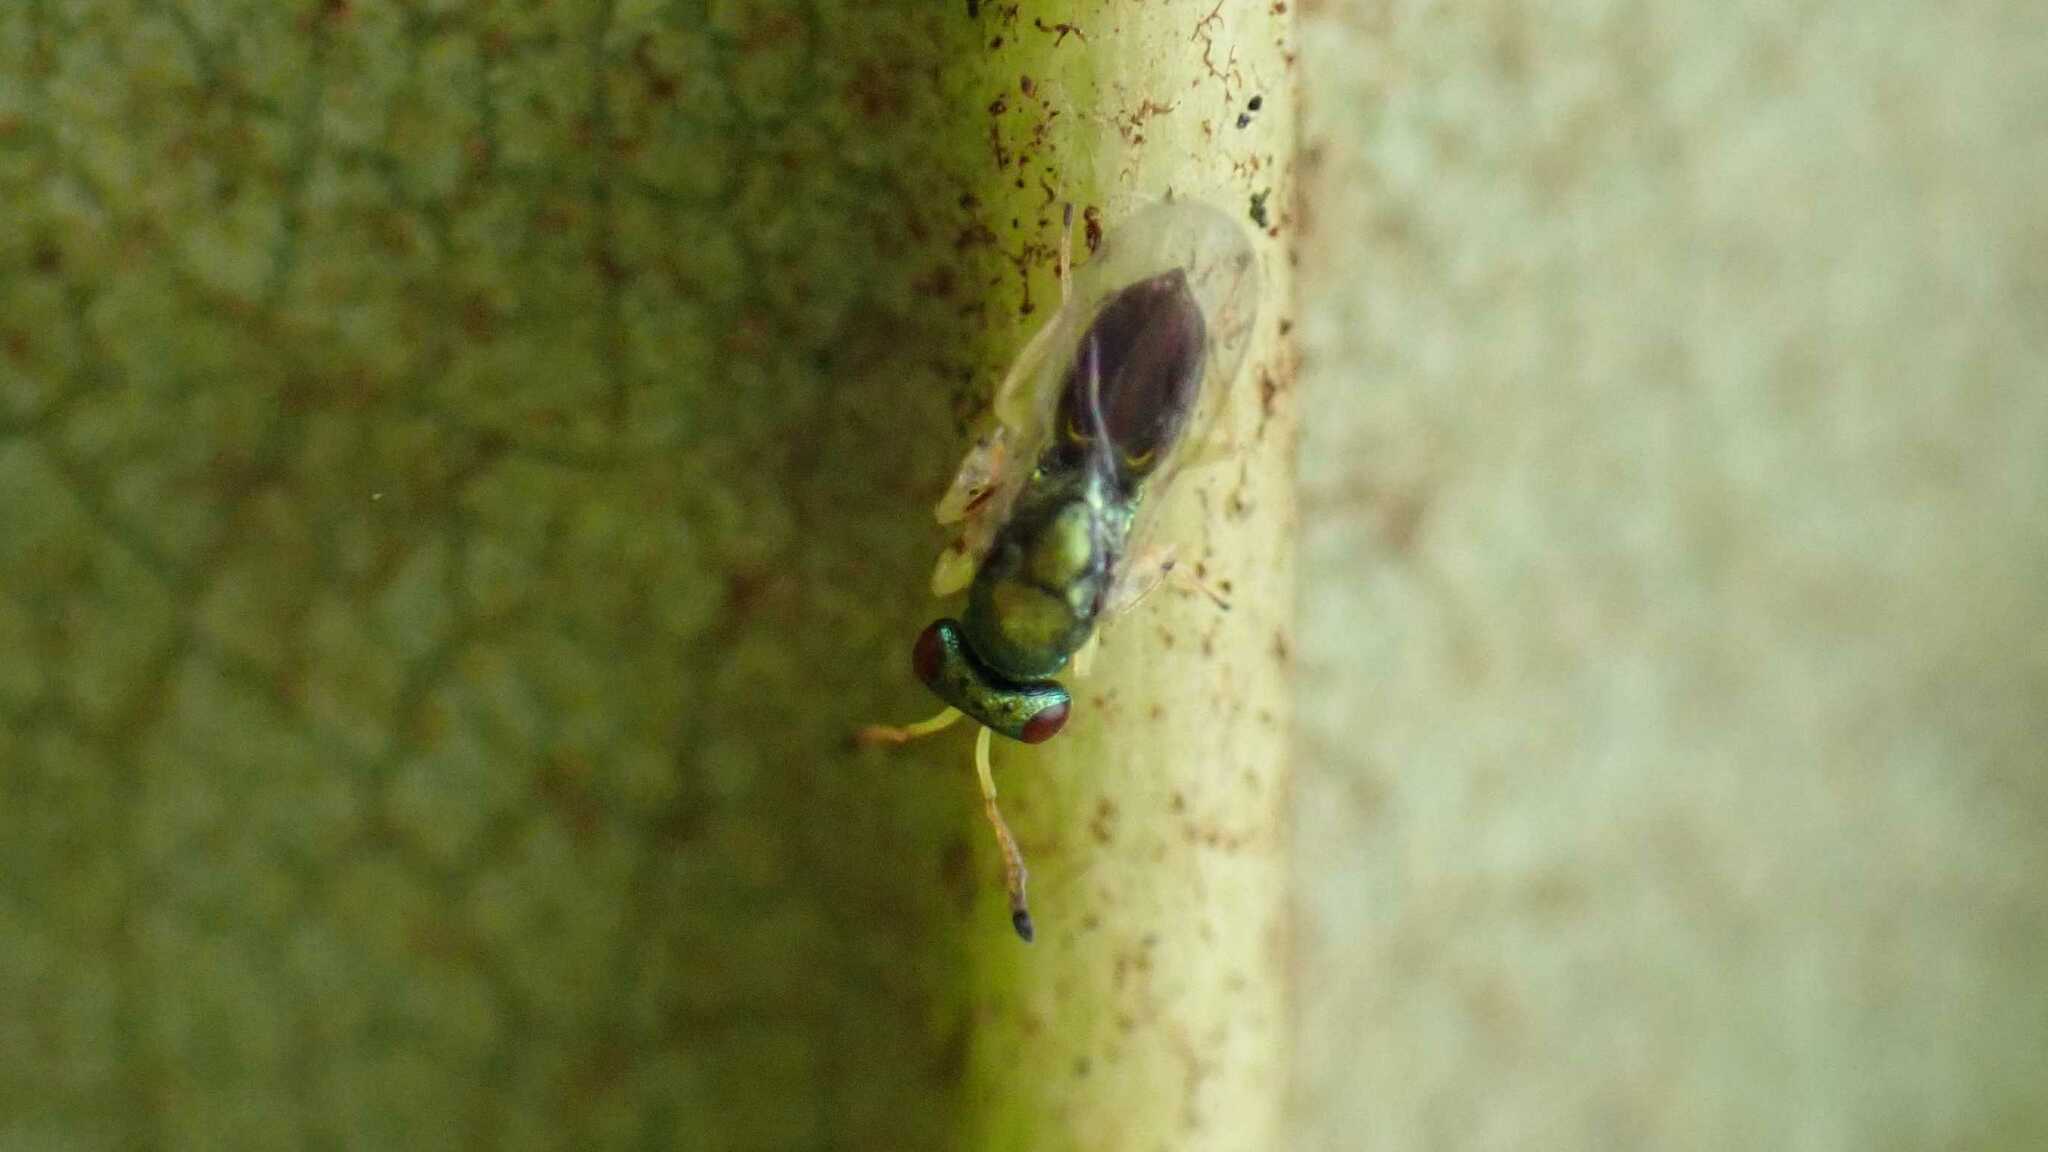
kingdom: Animalia
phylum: Arthropoda
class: Insecta
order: Hymenoptera
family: Pteromalidae
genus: Mesopolobus
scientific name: Mesopolobus tibialis
